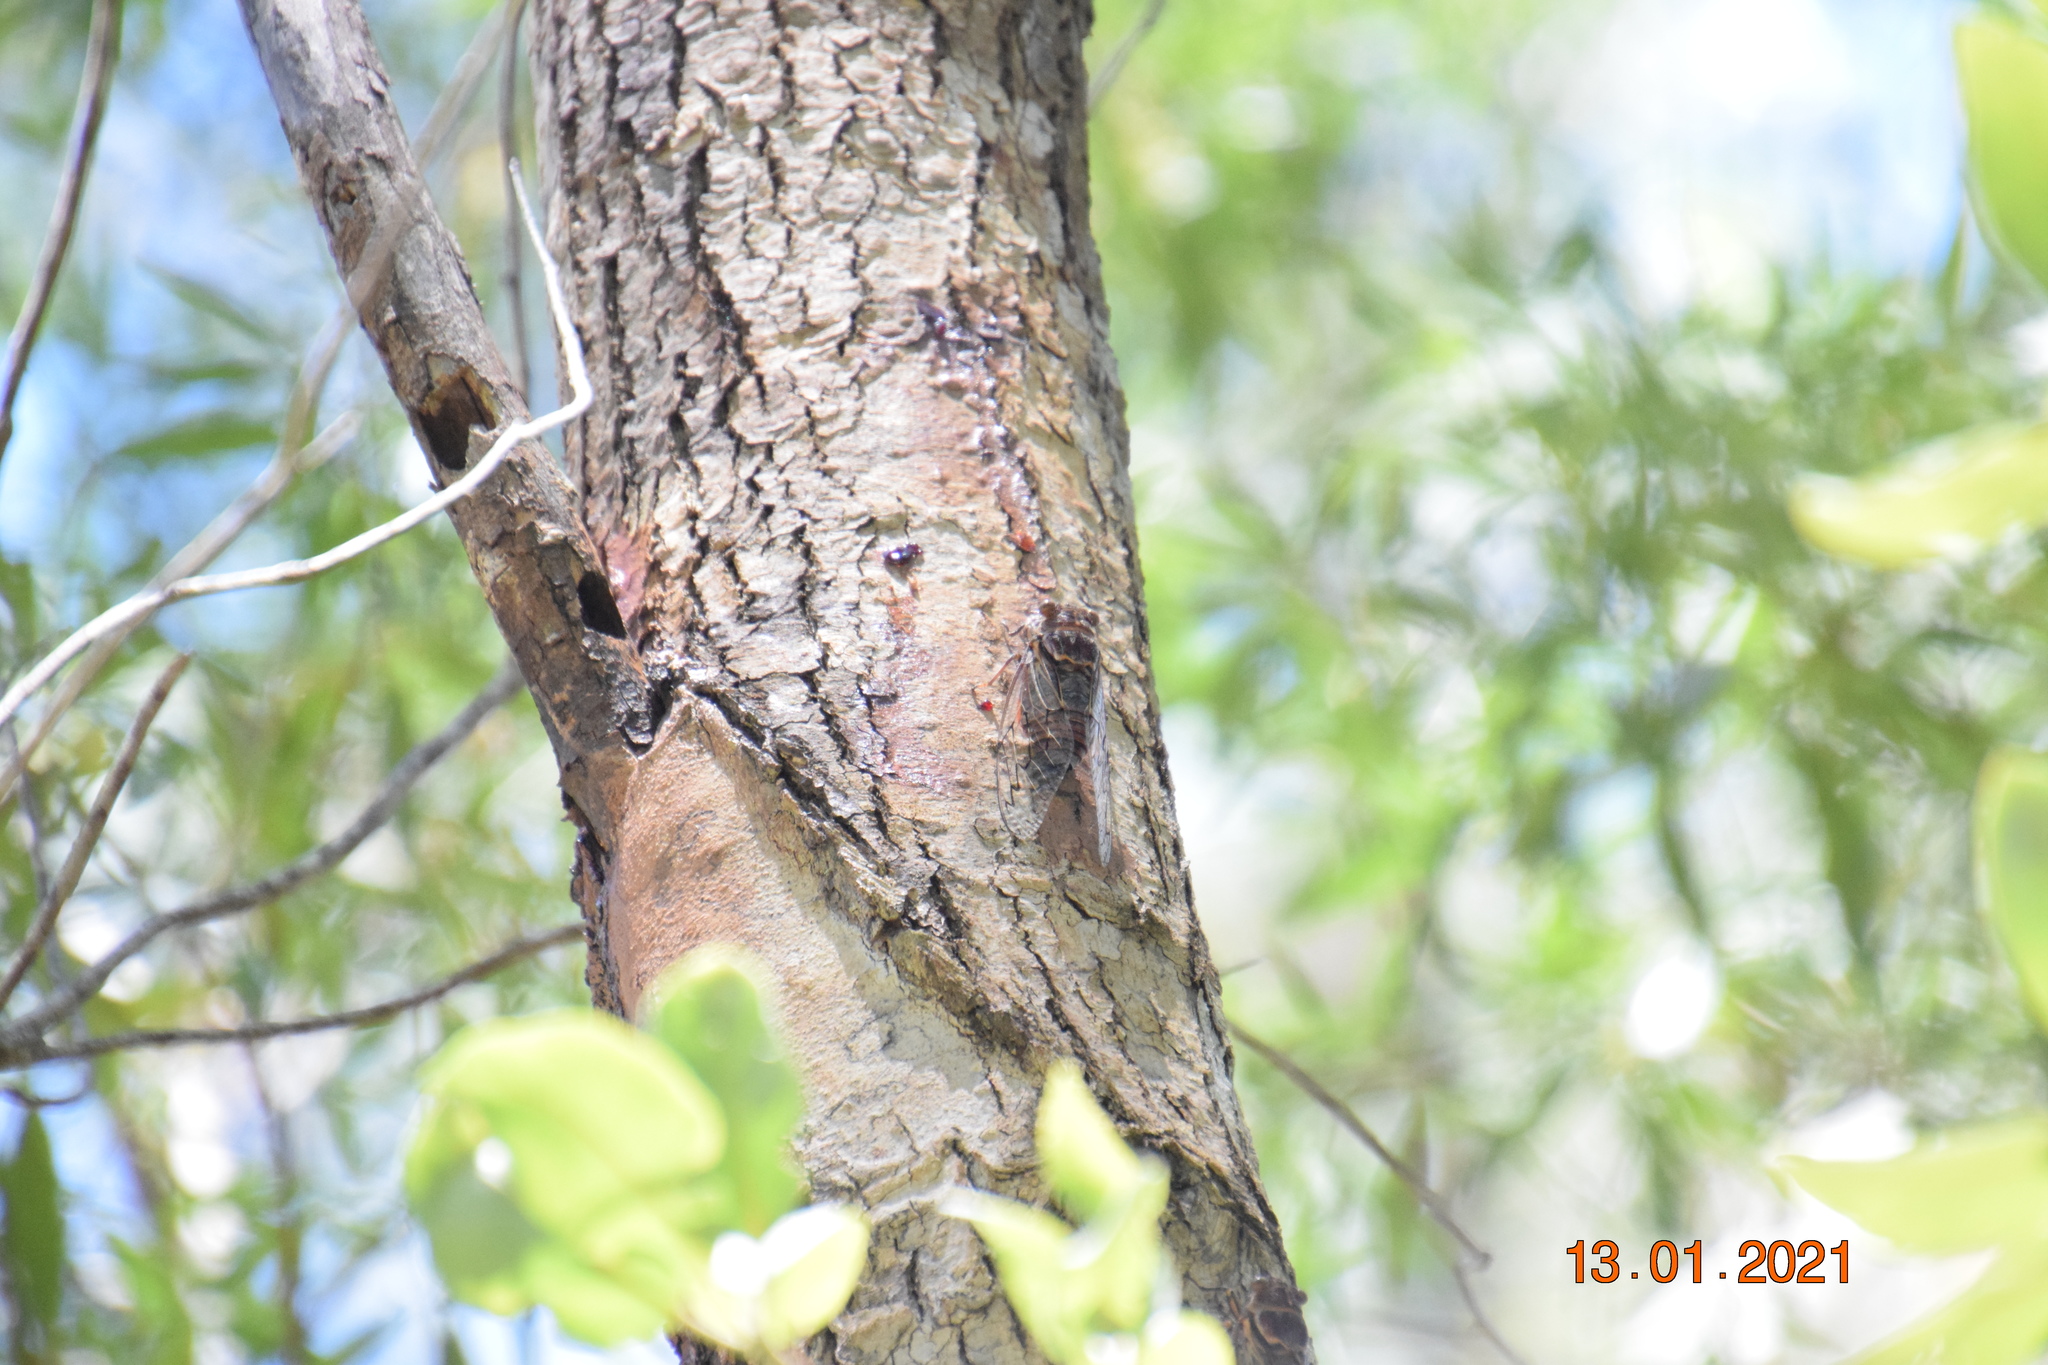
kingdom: Animalia
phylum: Arthropoda
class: Insecta
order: Hemiptera
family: Cicadidae
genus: Henicopsaltria
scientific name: Henicopsaltria eydouxii
